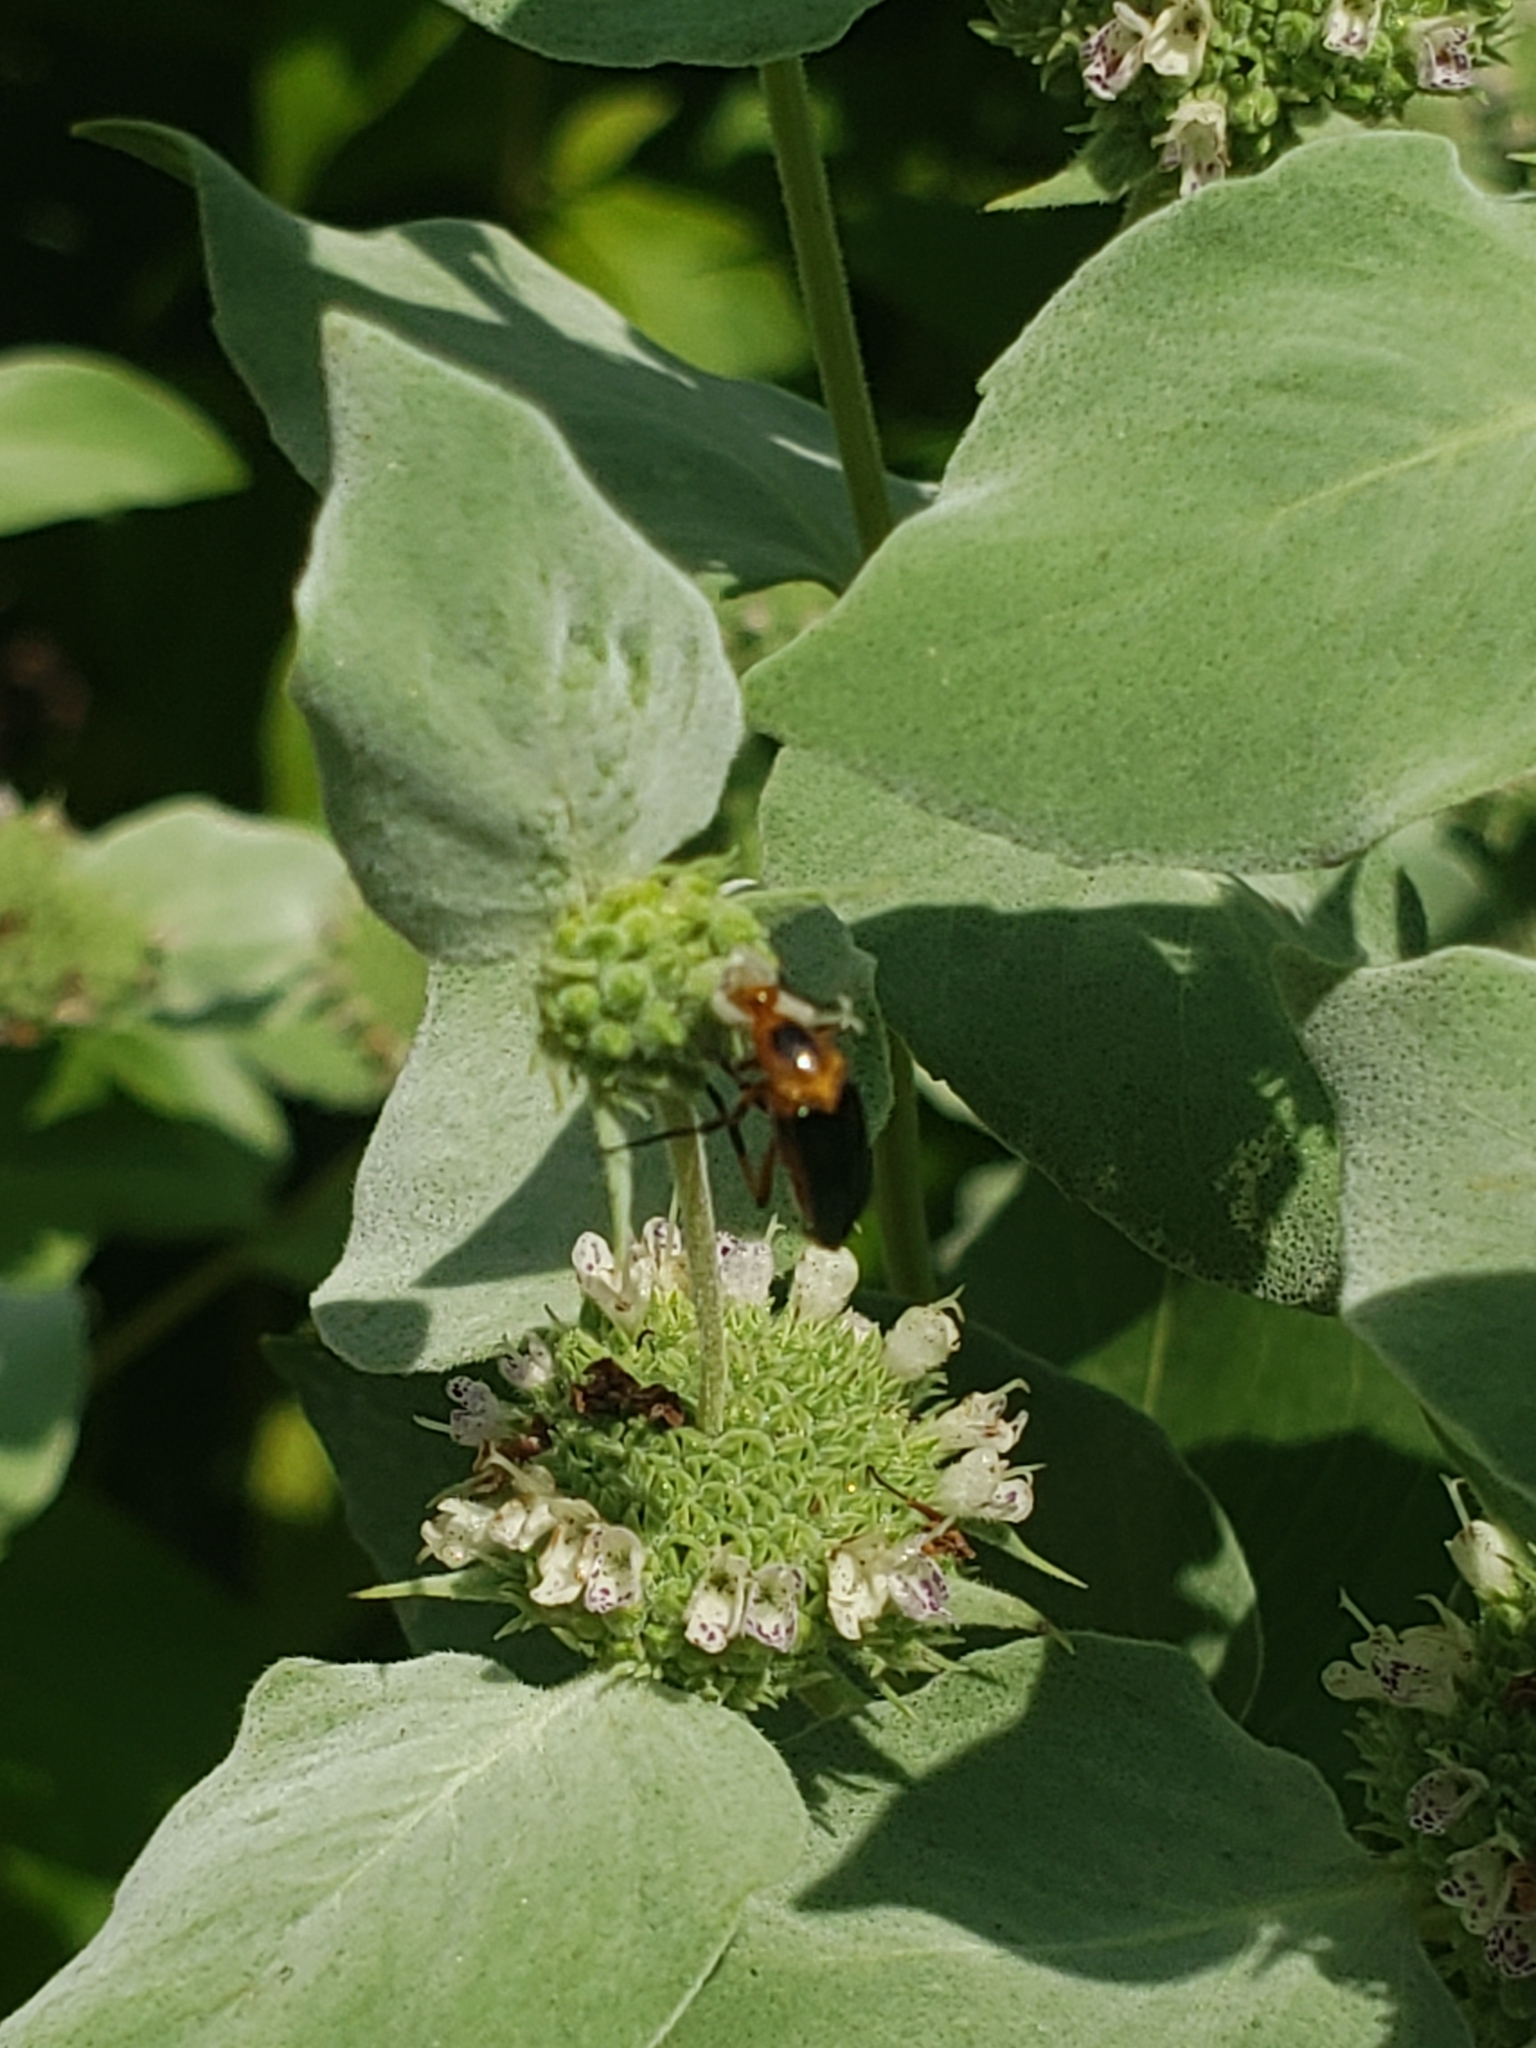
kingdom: Animalia
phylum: Arthropoda
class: Insecta
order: Coleoptera
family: Ripiphoridae
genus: Macrosiagon
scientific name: Macrosiagon limbatum
